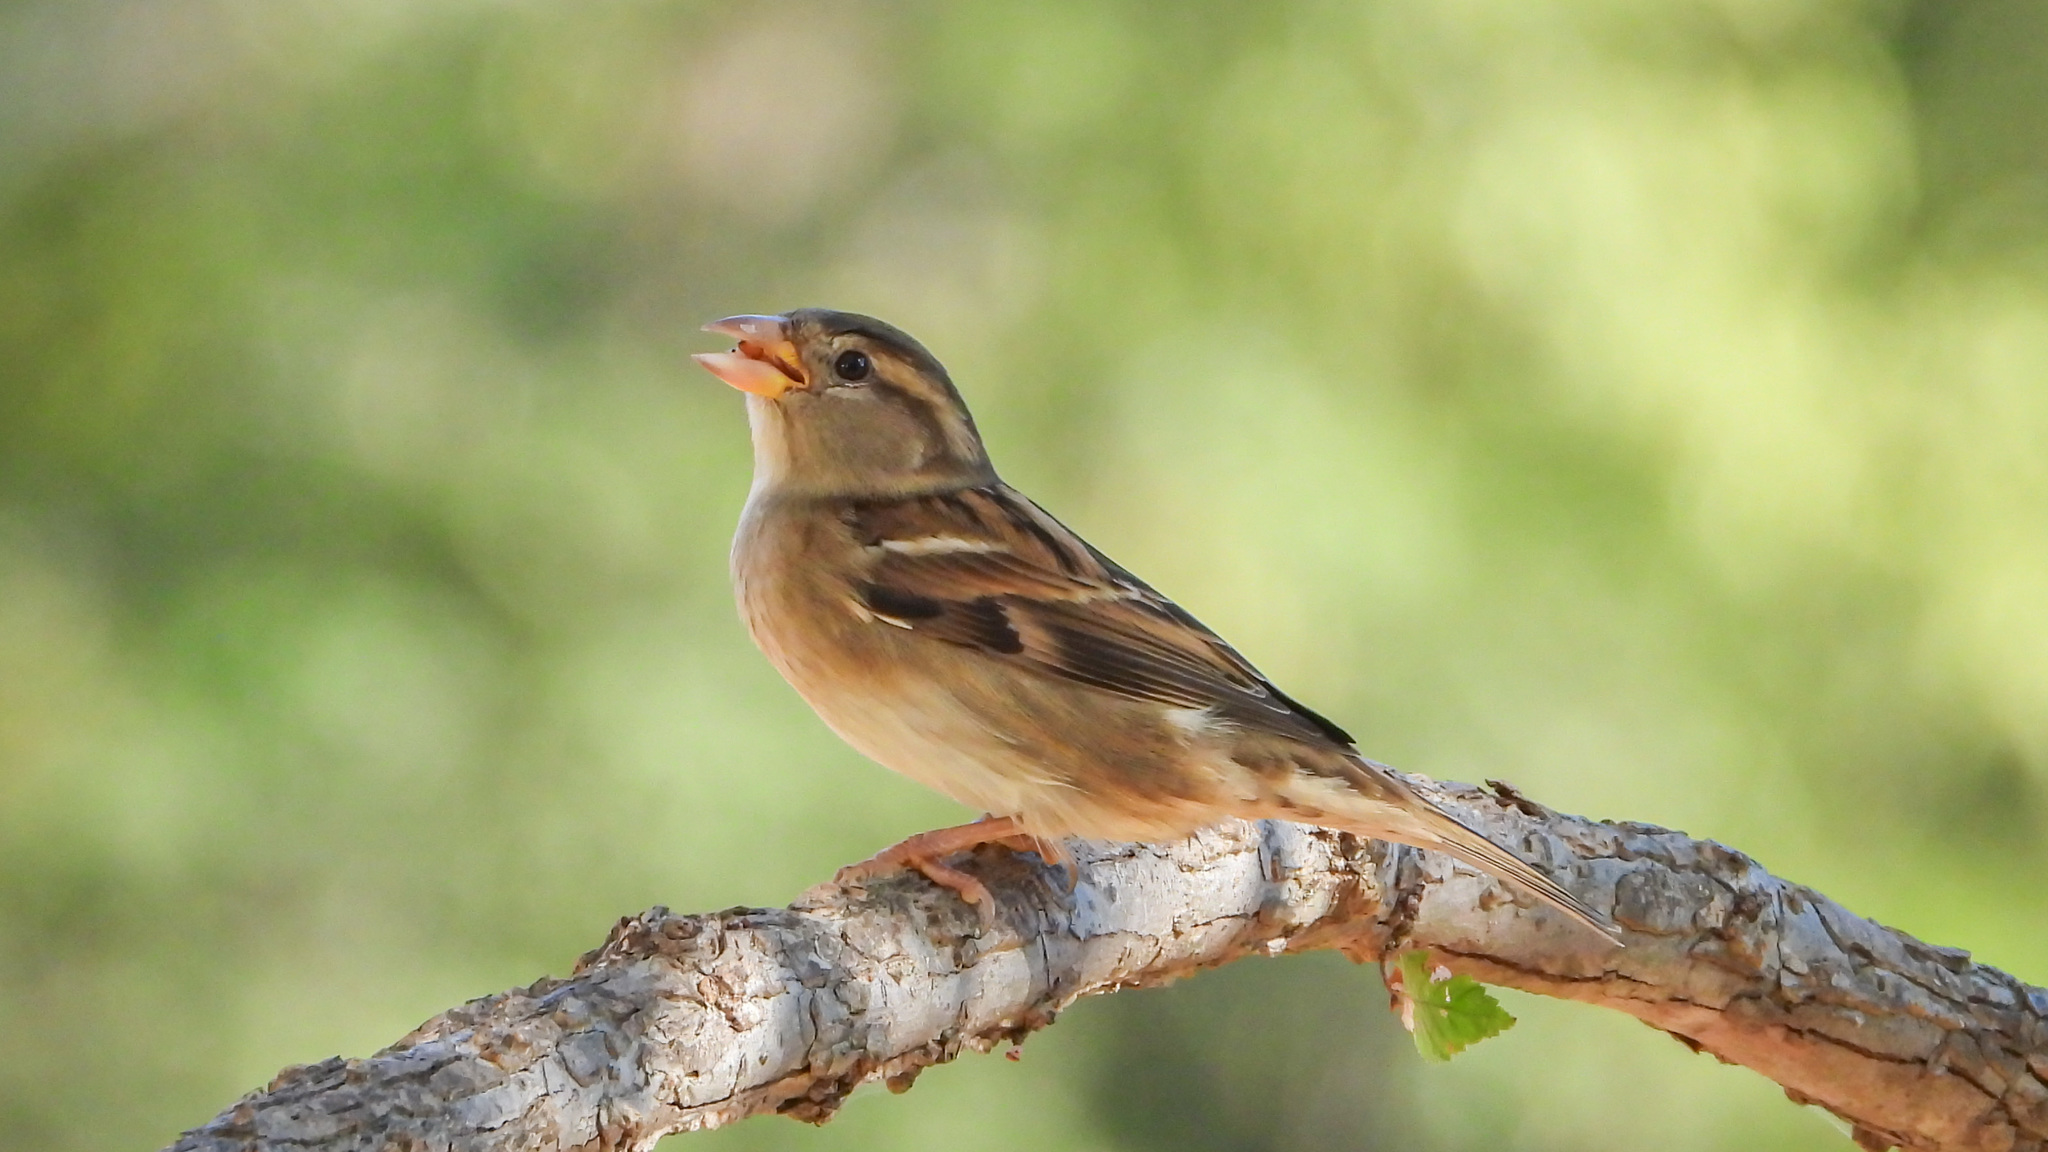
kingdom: Animalia
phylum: Chordata
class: Aves
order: Passeriformes
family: Passeridae
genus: Passer
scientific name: Passer domesticus
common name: House sparrow
